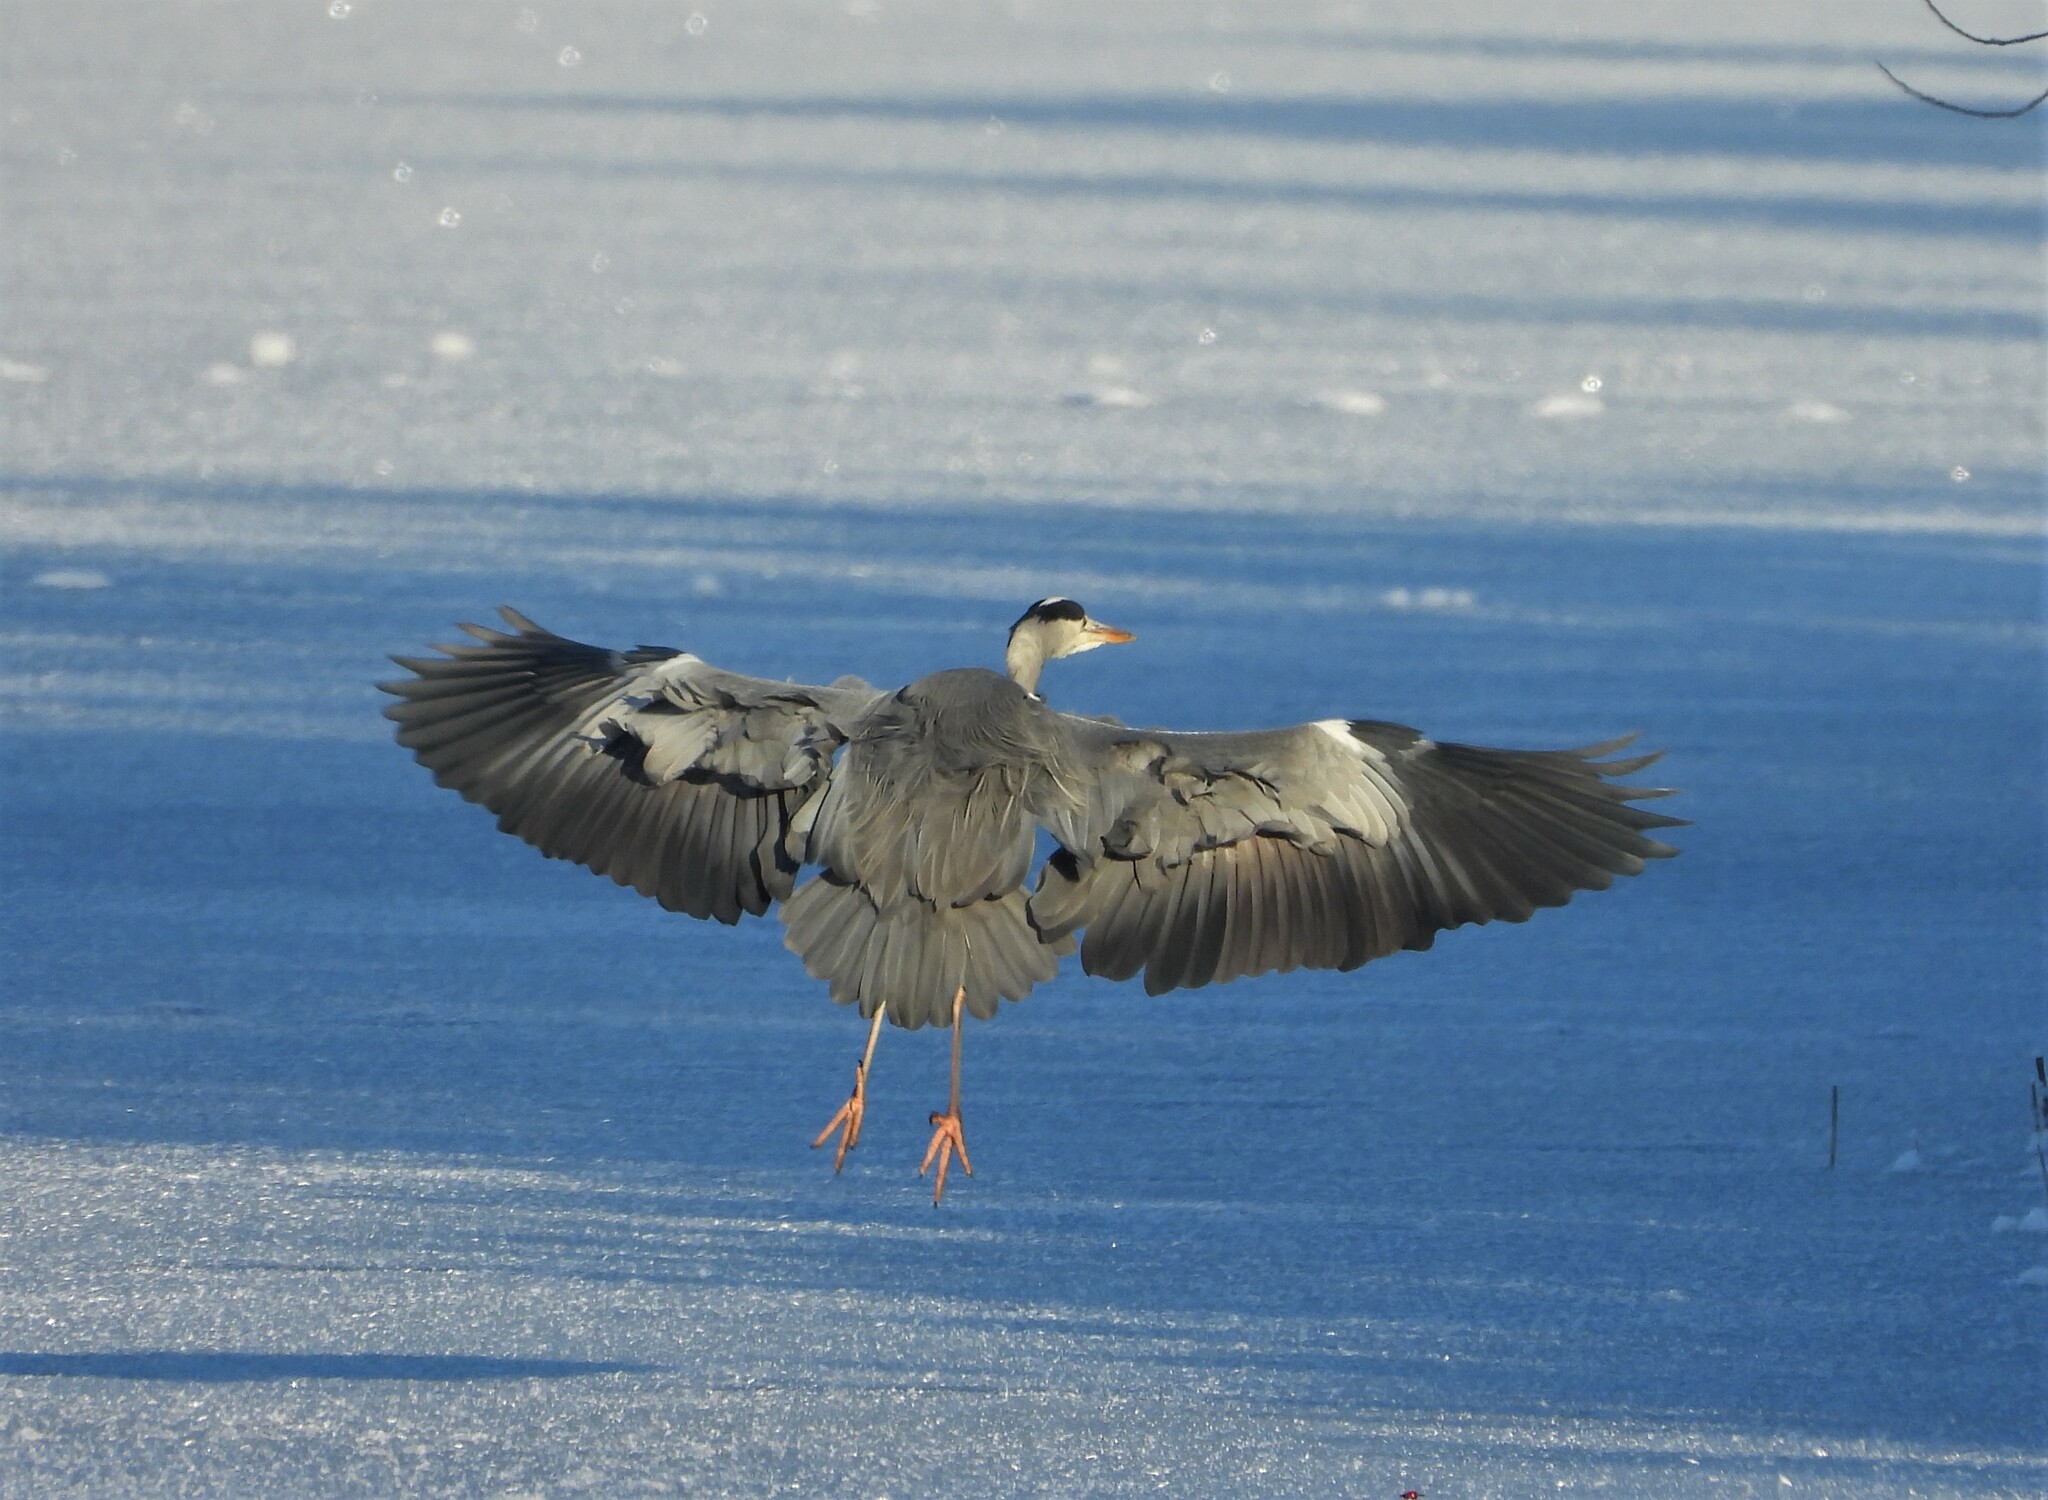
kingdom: Animalia
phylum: Chordata
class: Aves
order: Pelecaniformes
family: Ardeidae
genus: Ardea
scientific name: Ardea cinerea
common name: Grey heron
